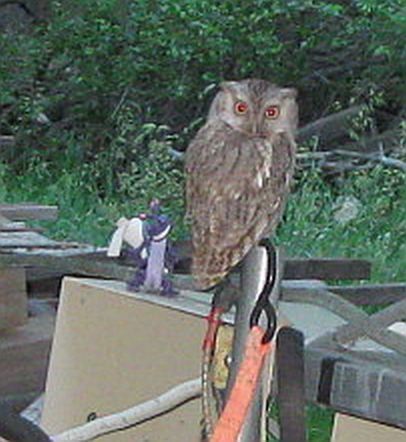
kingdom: Animalia
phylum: Chordata
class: Aves
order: Strigiformes
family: Strigidae
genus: Megascops
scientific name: Megascops asio
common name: Eastern screech-owl
